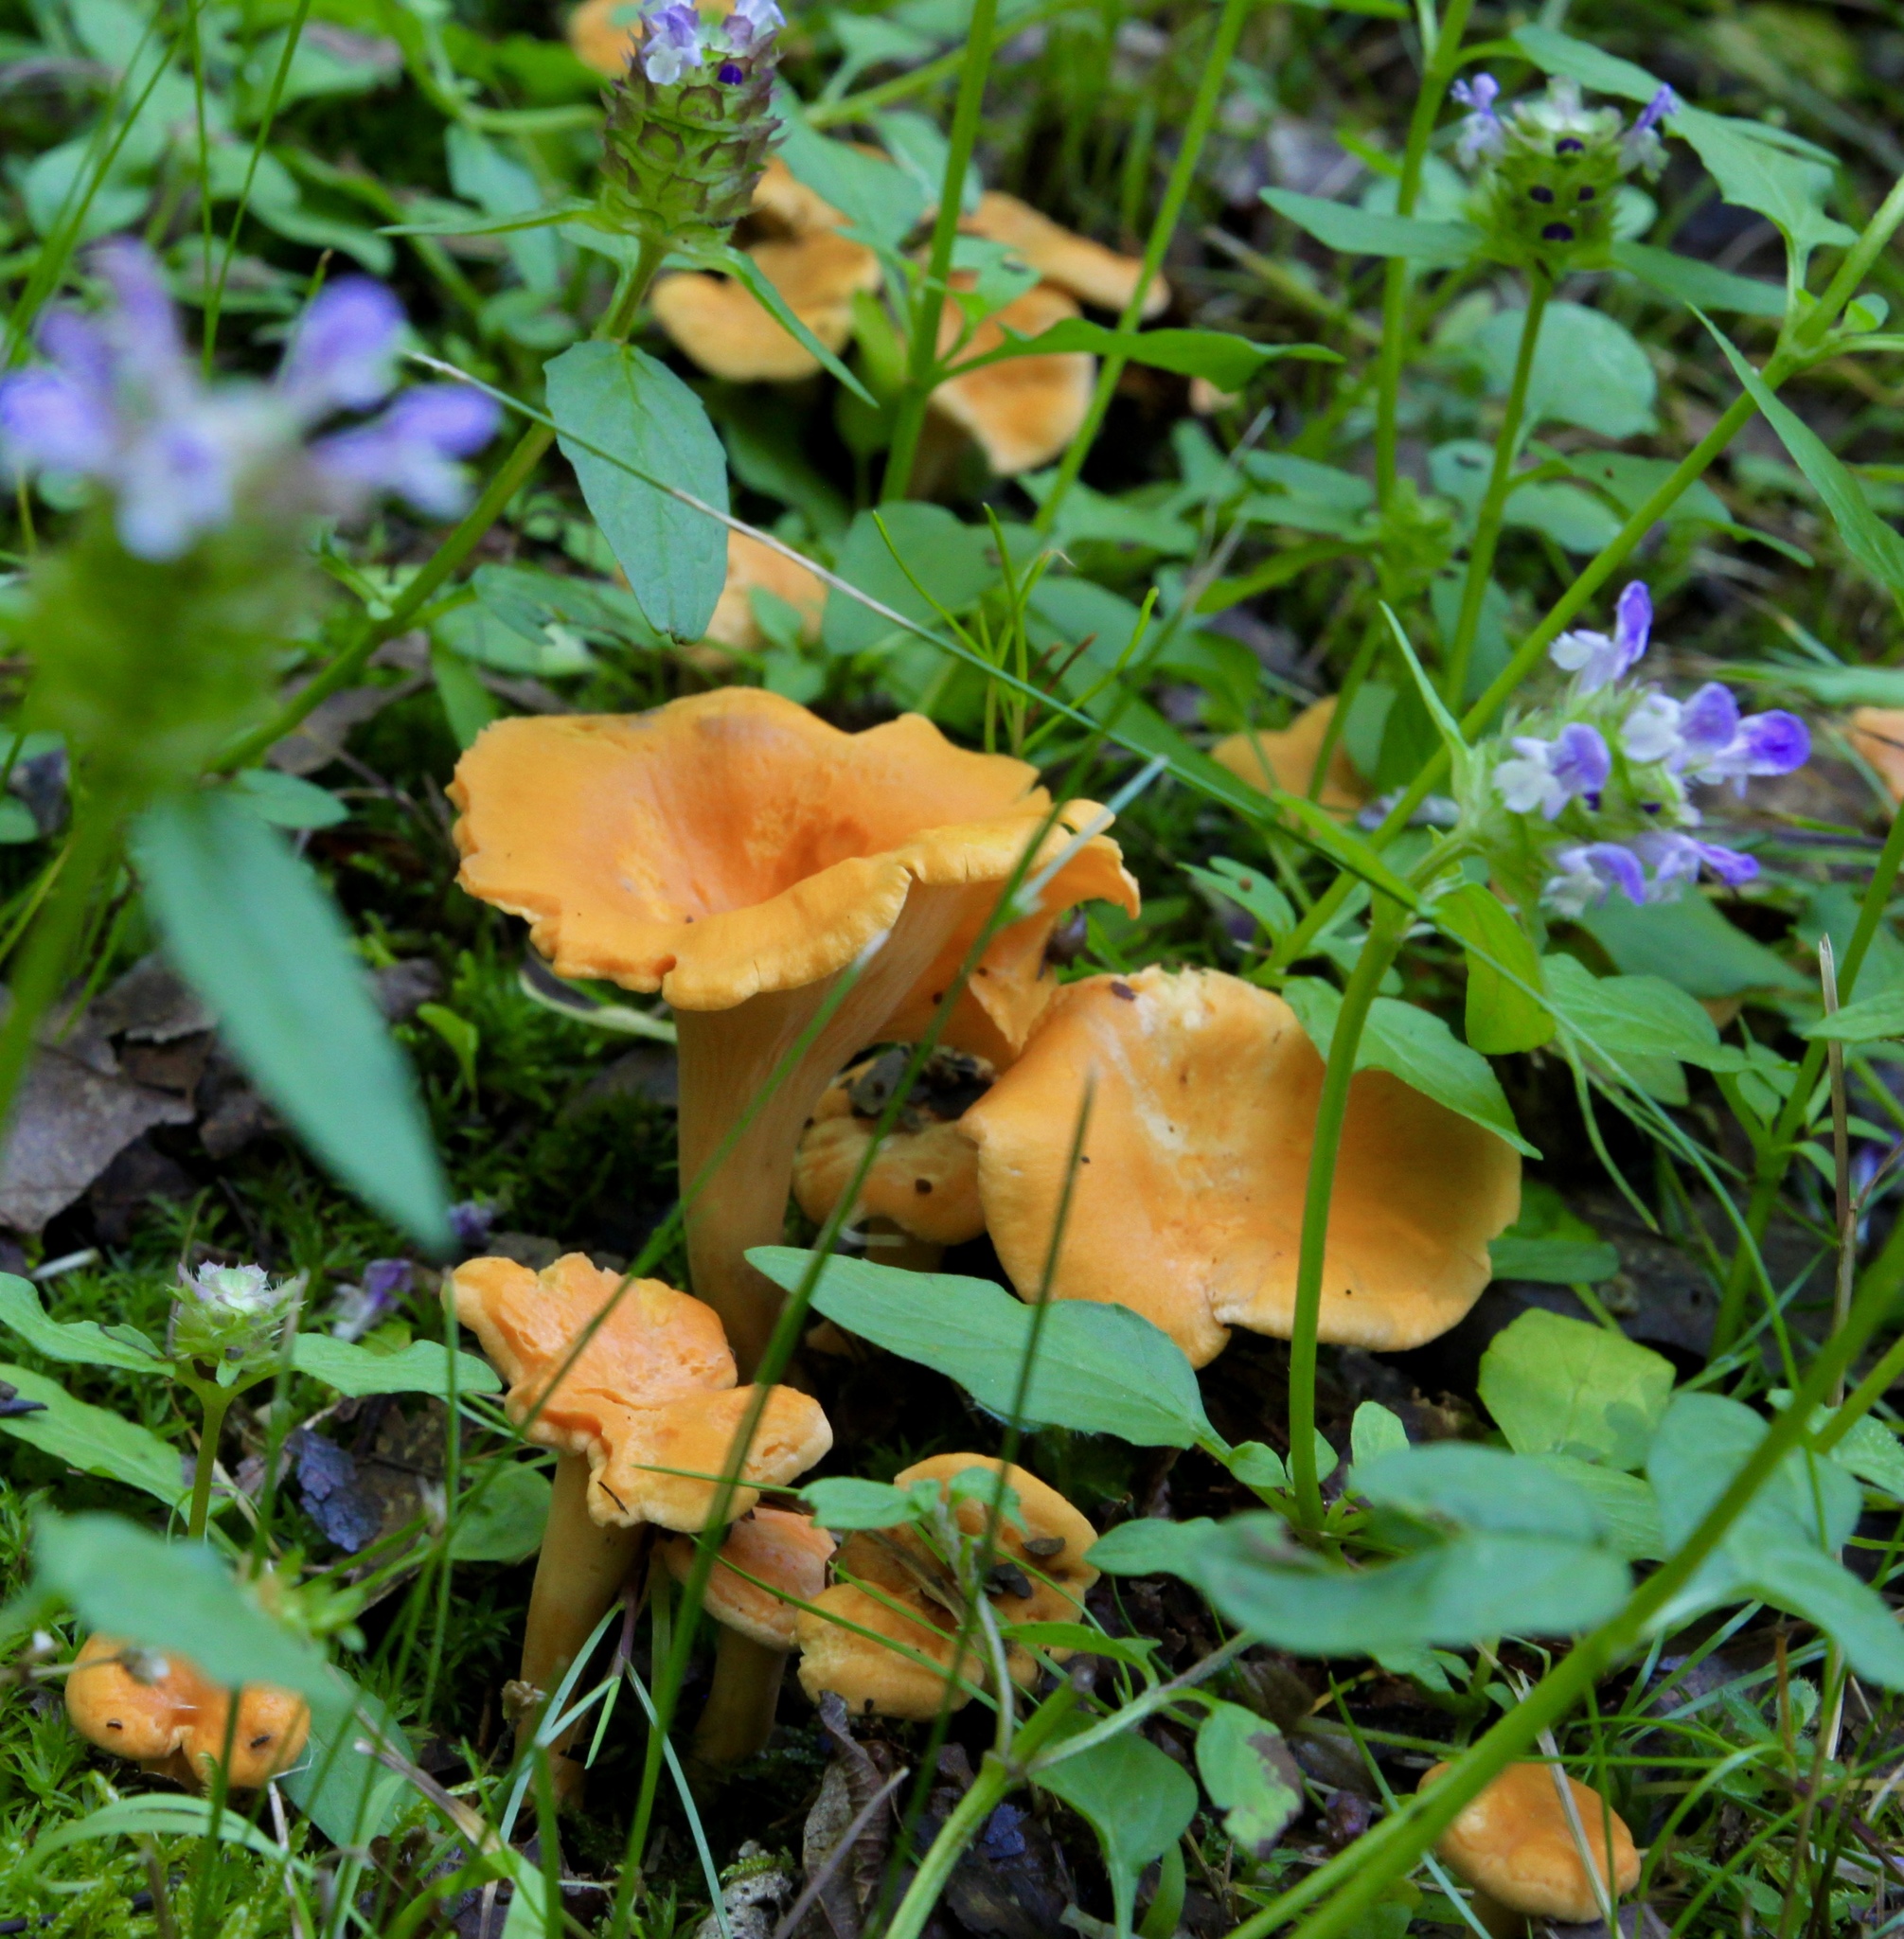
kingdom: Fungi
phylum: Basidiomycota
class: Agaricomycetes
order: Cantharellales
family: Hydnaceae
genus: Cantharellus
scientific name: Cantharellus lateritius
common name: Smooth chanterelle
